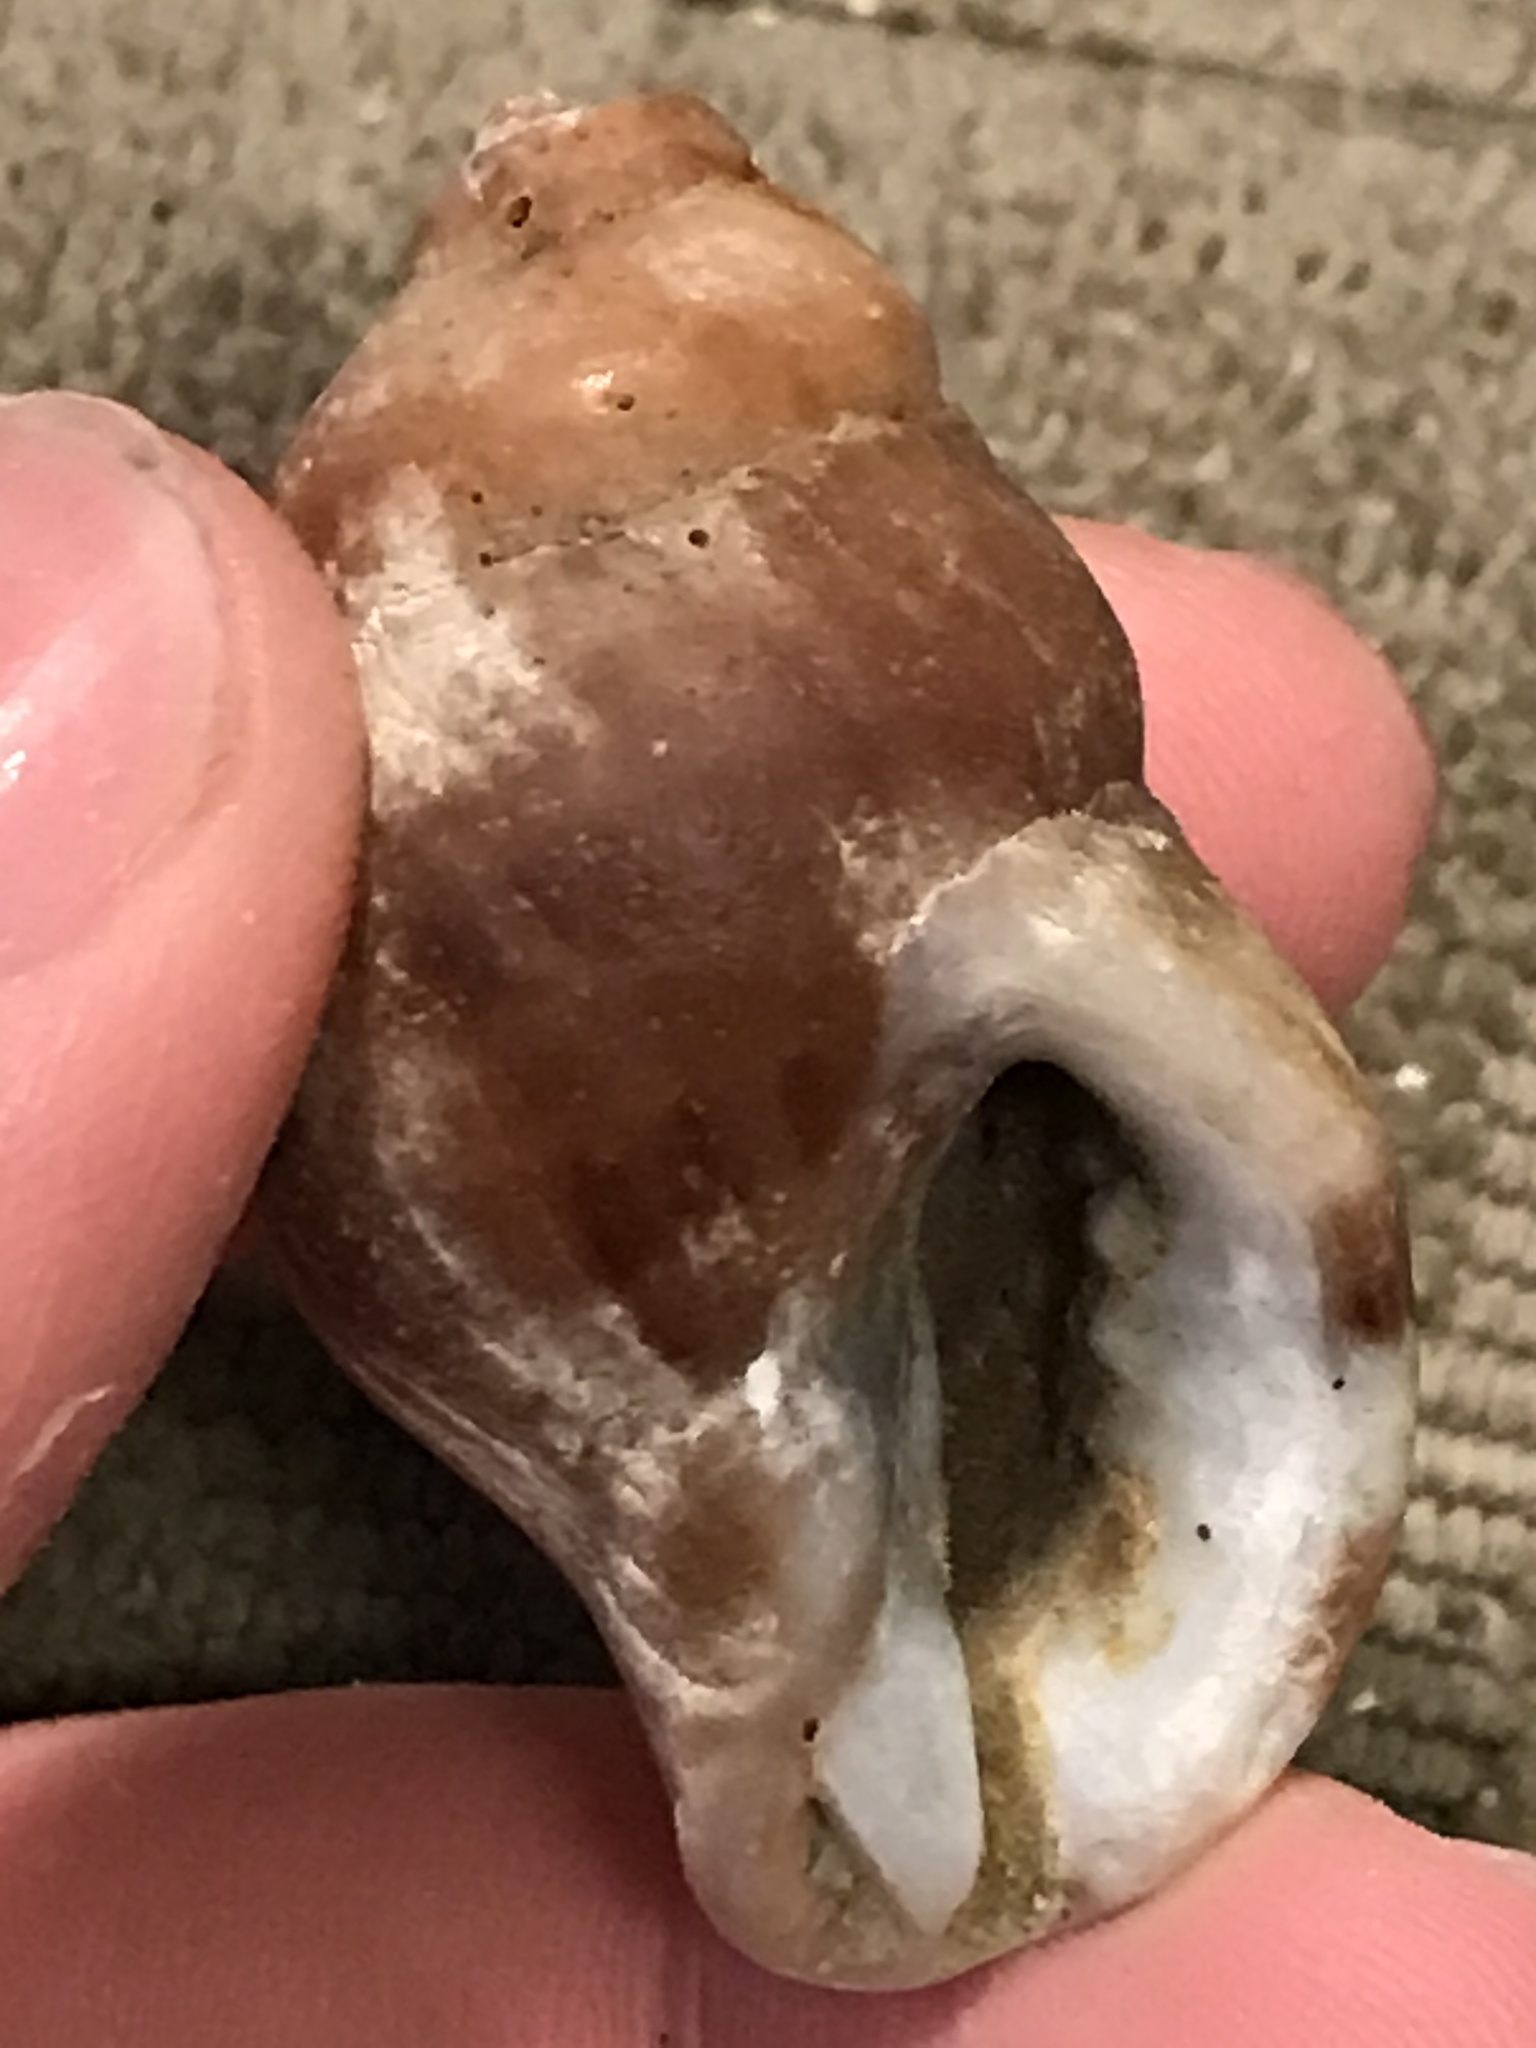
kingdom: Animalia
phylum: Mollusca
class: Gastropoda
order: Neogastropoda
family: Muricidae
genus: Nucella
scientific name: Nucella lamellosa
